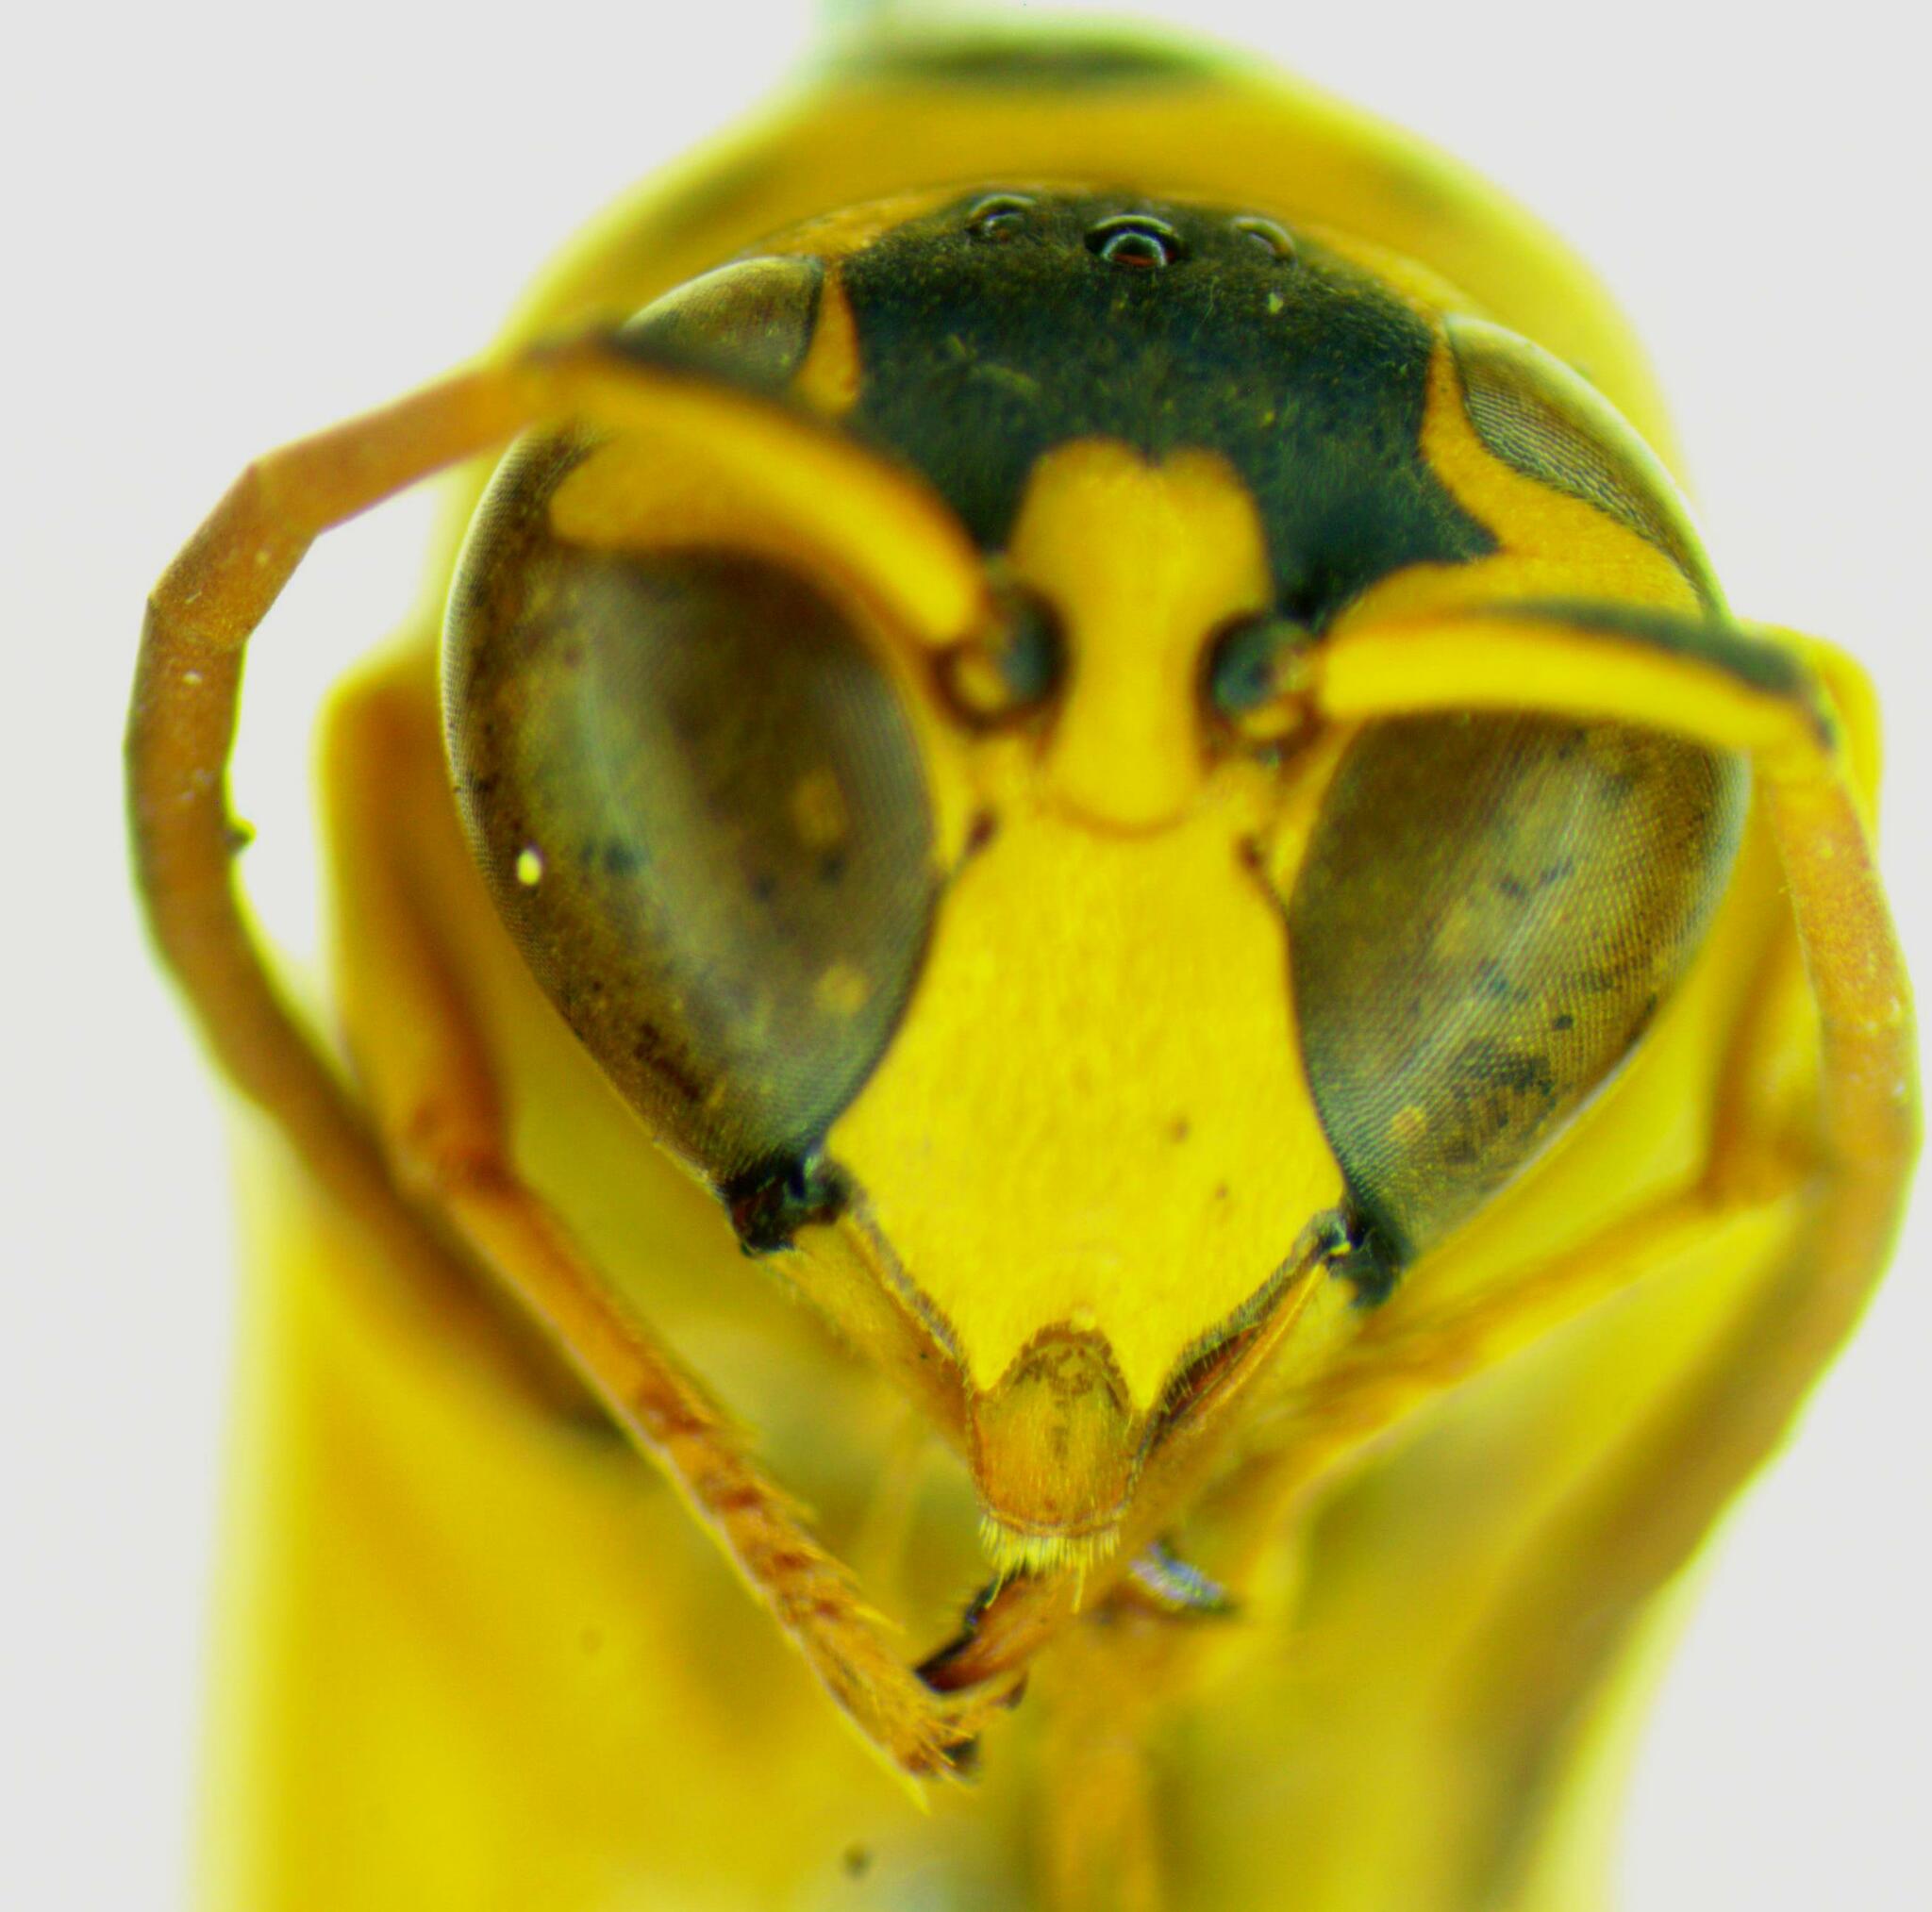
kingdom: Animalia
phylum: Arthropoda
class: Insecta
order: Hymenoptera
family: Eumenidae
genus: Pachymenes
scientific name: Pachymenes picturatus
